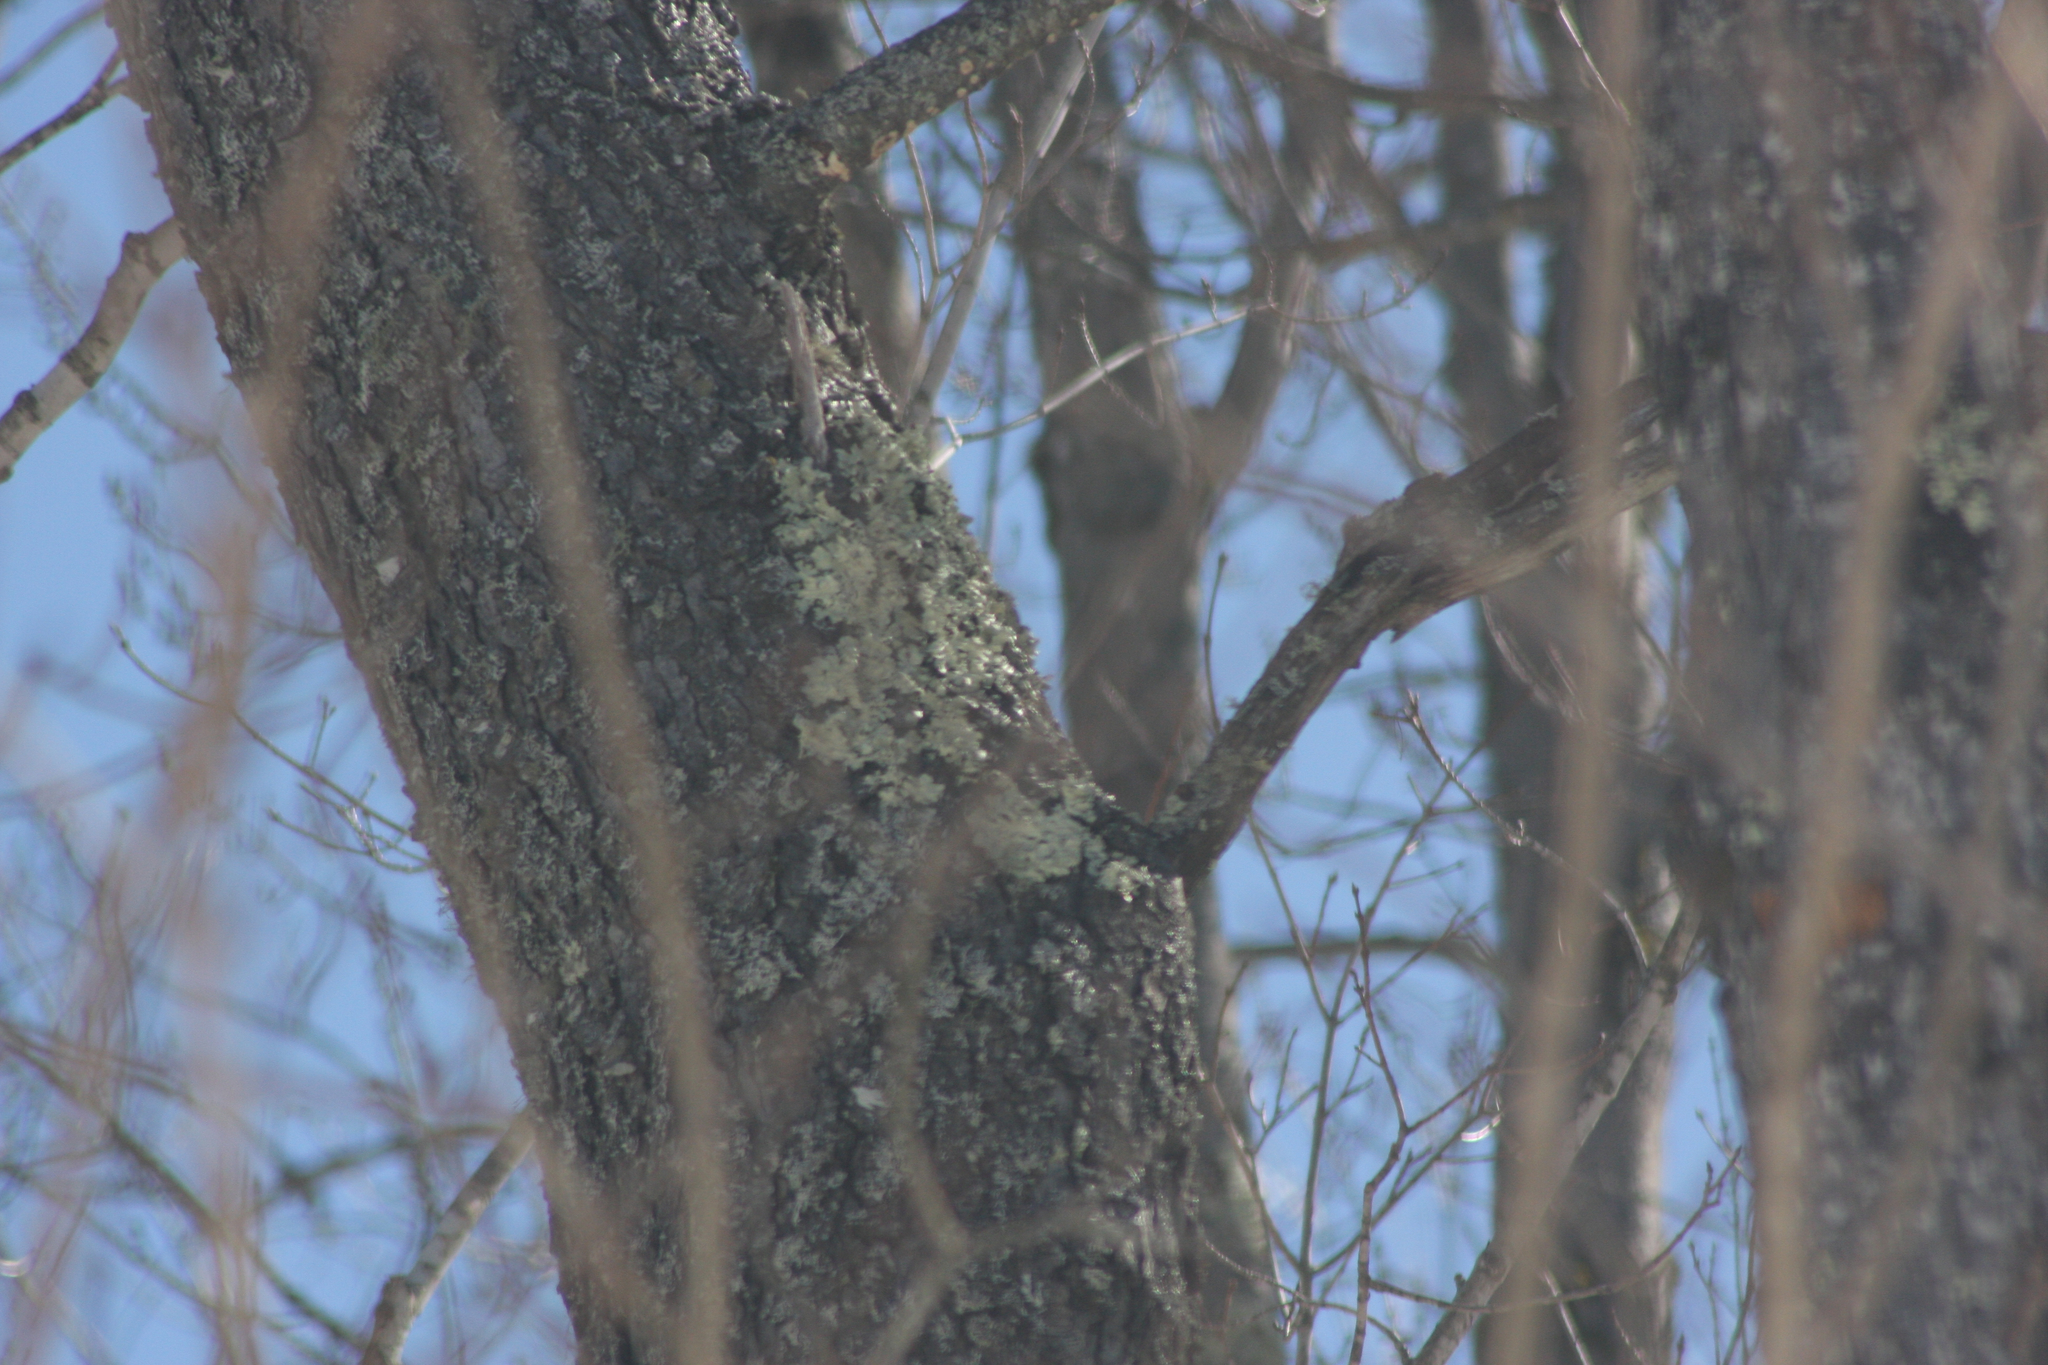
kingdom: Fungi
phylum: Ascomycota
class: Lecanoromycetes
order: Lecanorales
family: Parmeliaceae
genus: Flavoparmelia
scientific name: Flavoparmelia caperata
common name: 40-mile per hour lichen
